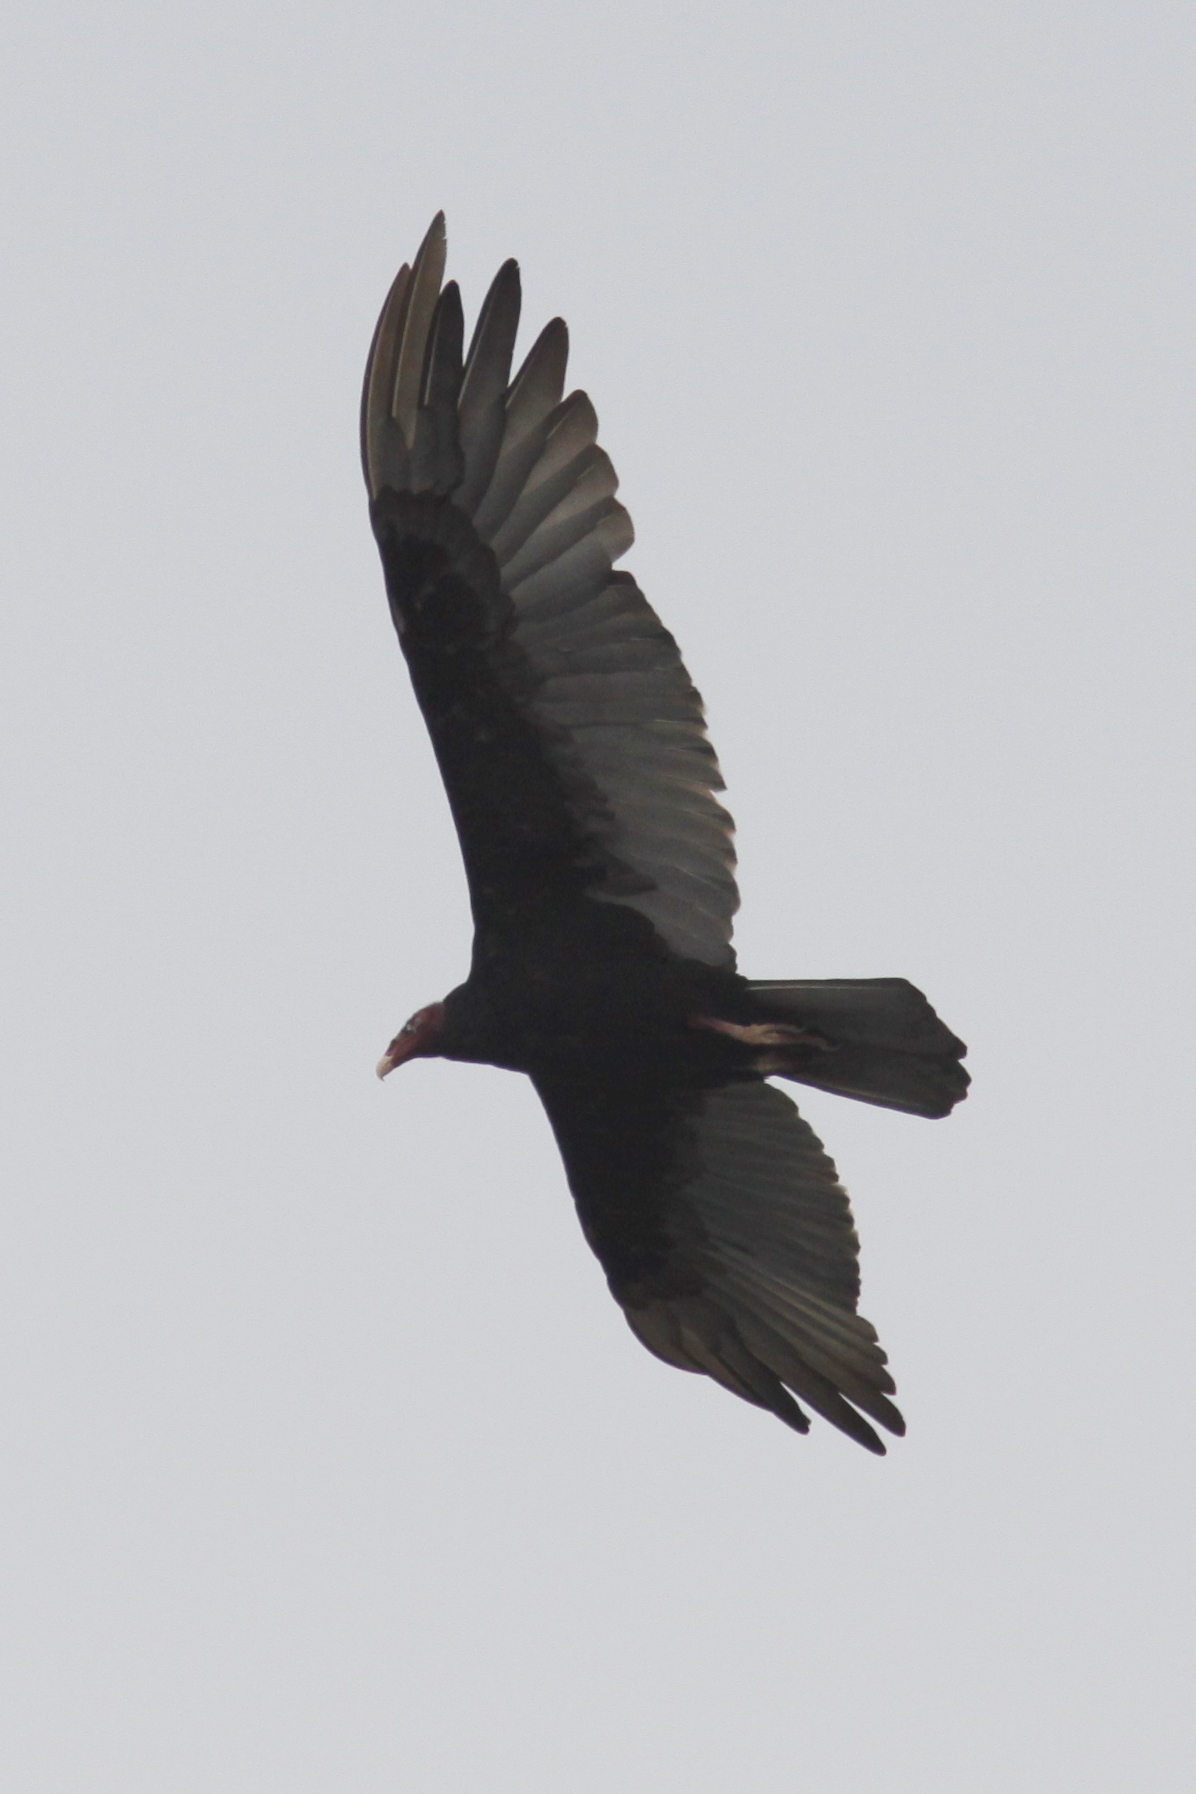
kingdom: Animalia
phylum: Chordata
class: Aves
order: Accipitriformes
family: Cathartidae
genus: Cathartes
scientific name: Cathartes aura
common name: Turkey vulture
